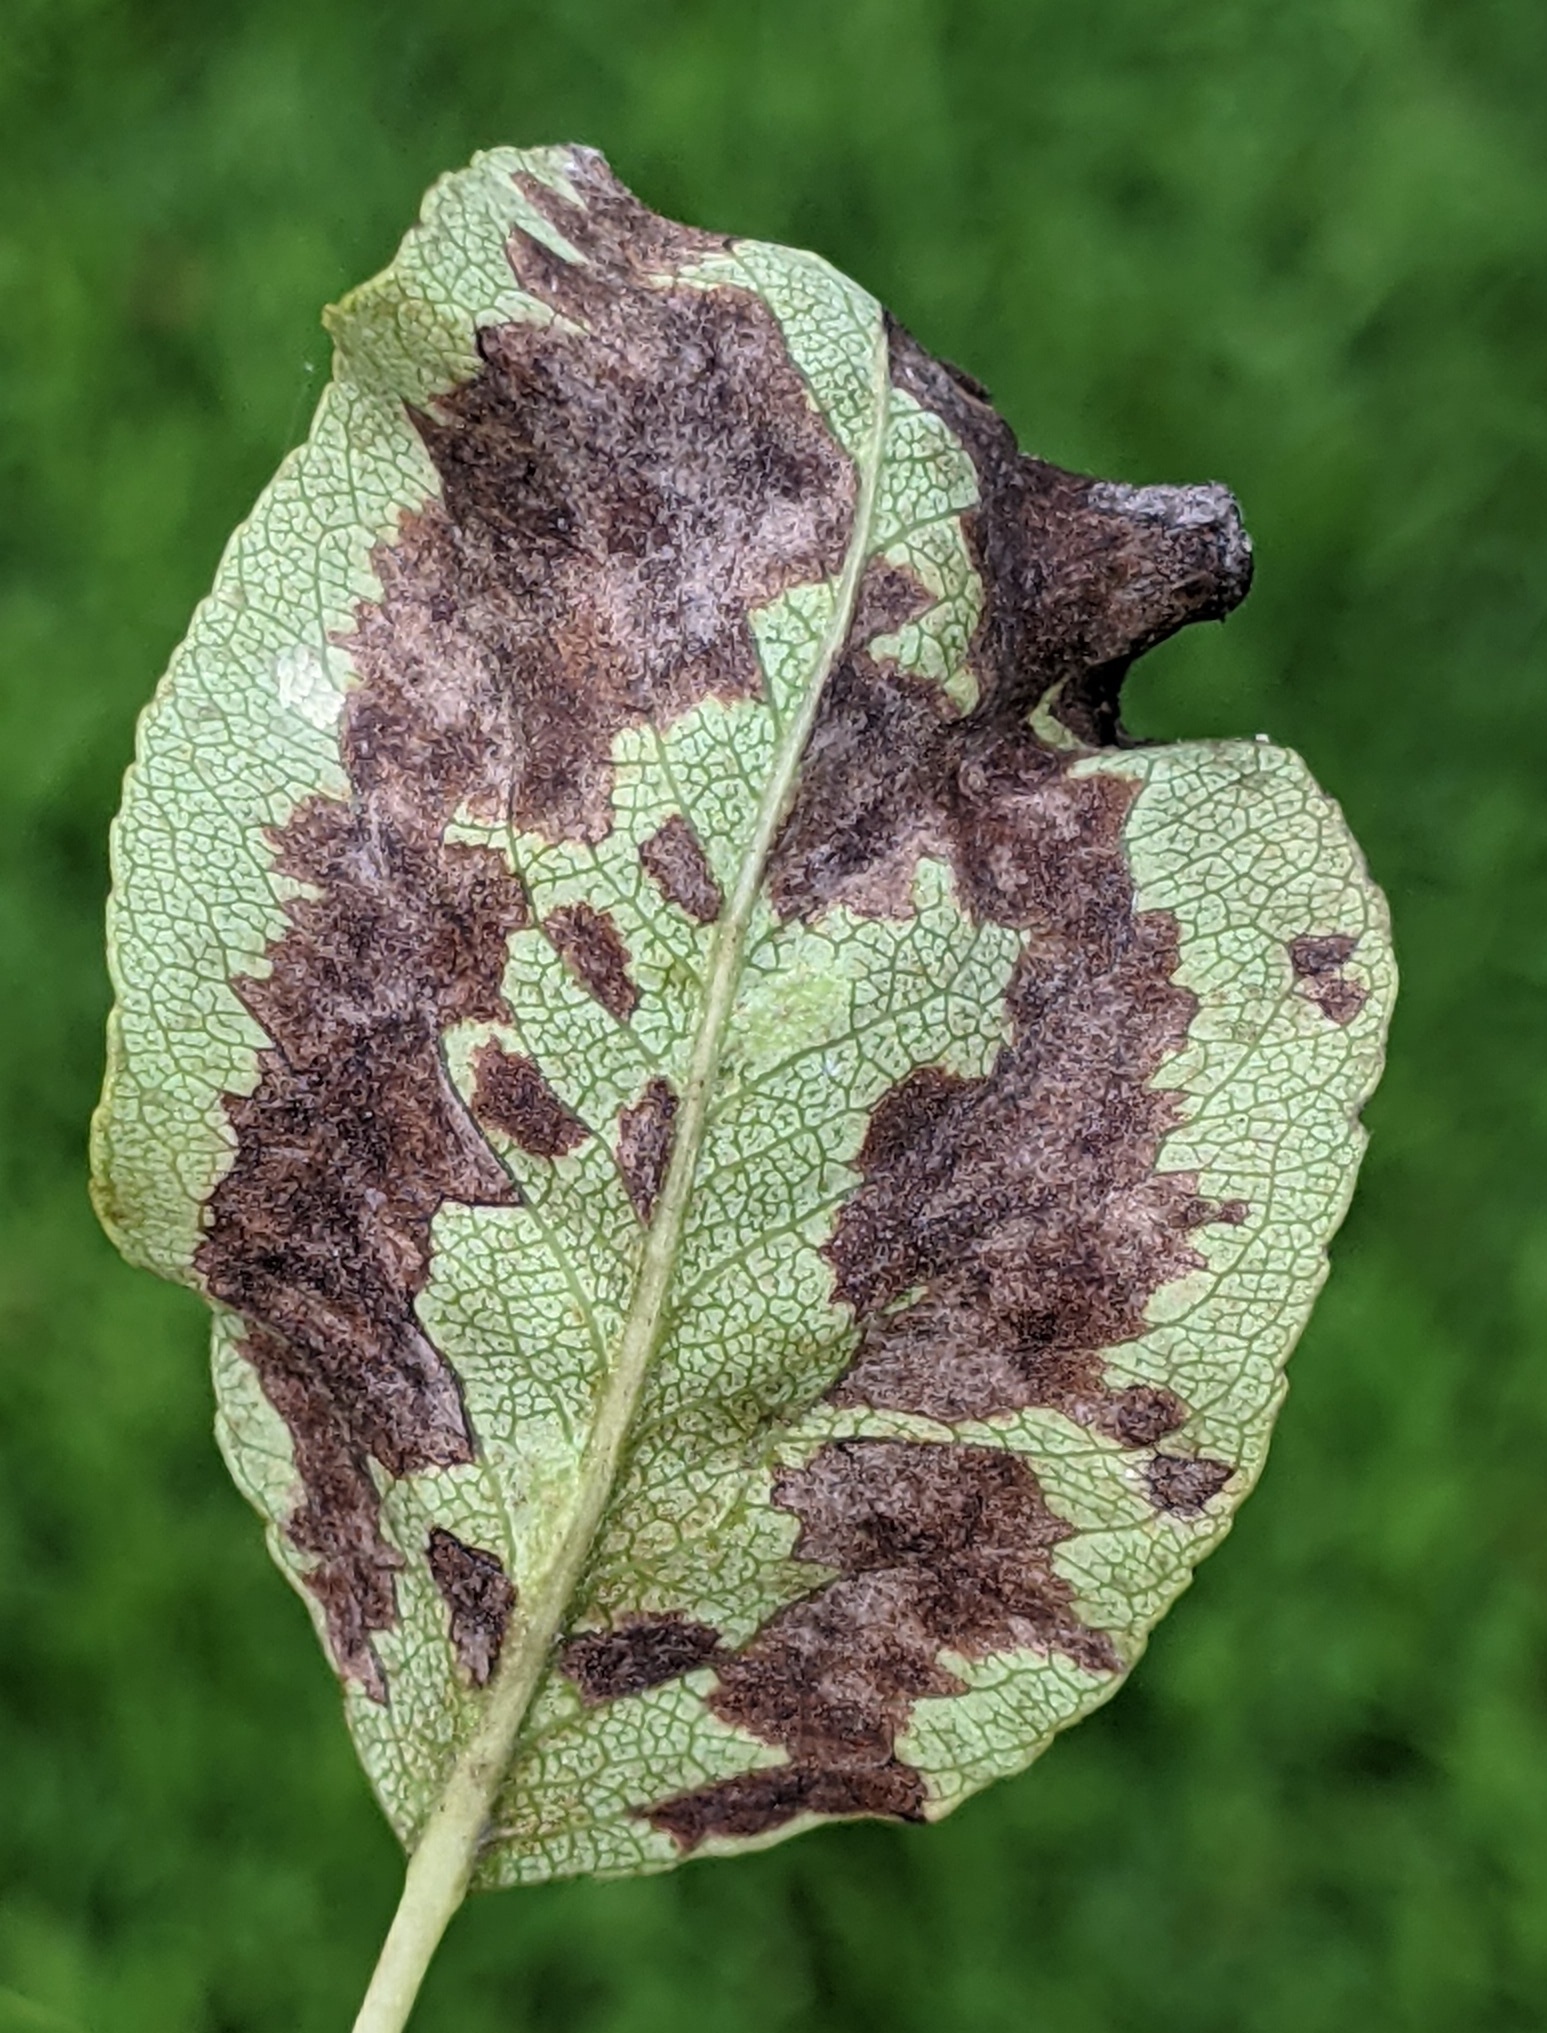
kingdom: Animalia
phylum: Arthropoda
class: Arachnida
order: Trombidiformes
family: Eriophyidae
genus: Eriophyes
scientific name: Eriophyes pyri
